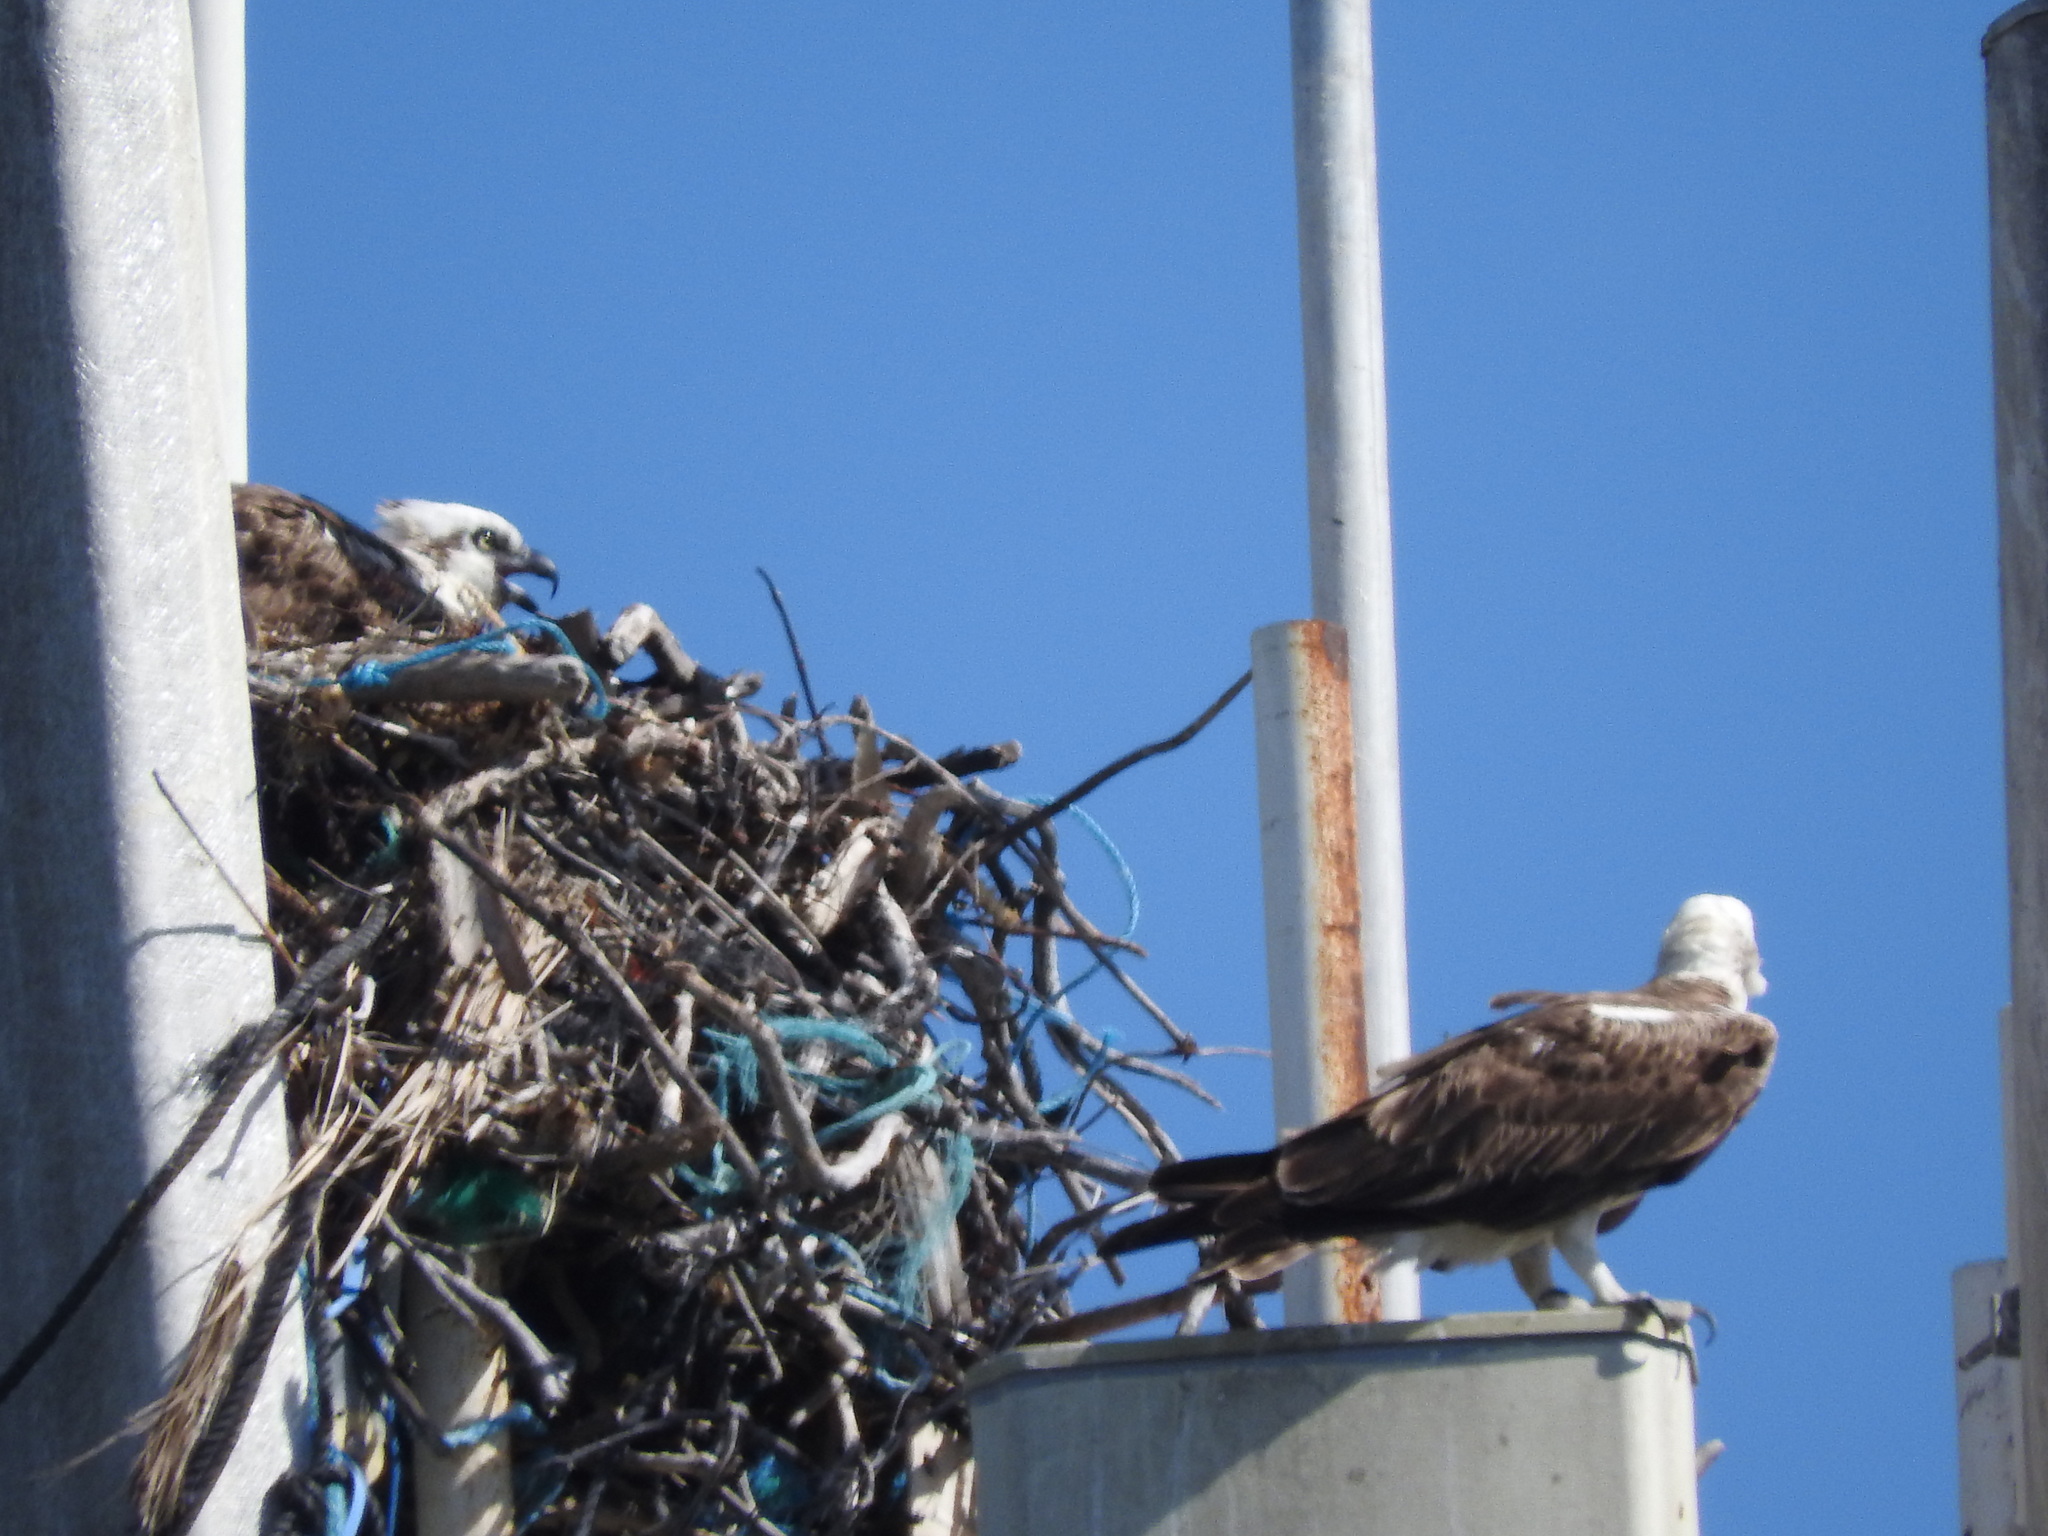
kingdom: Animalia
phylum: Chordata
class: Aves
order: Accipitriformes
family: Pandionidae
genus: Pandion
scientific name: Pandion haliaetus
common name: Osprey
